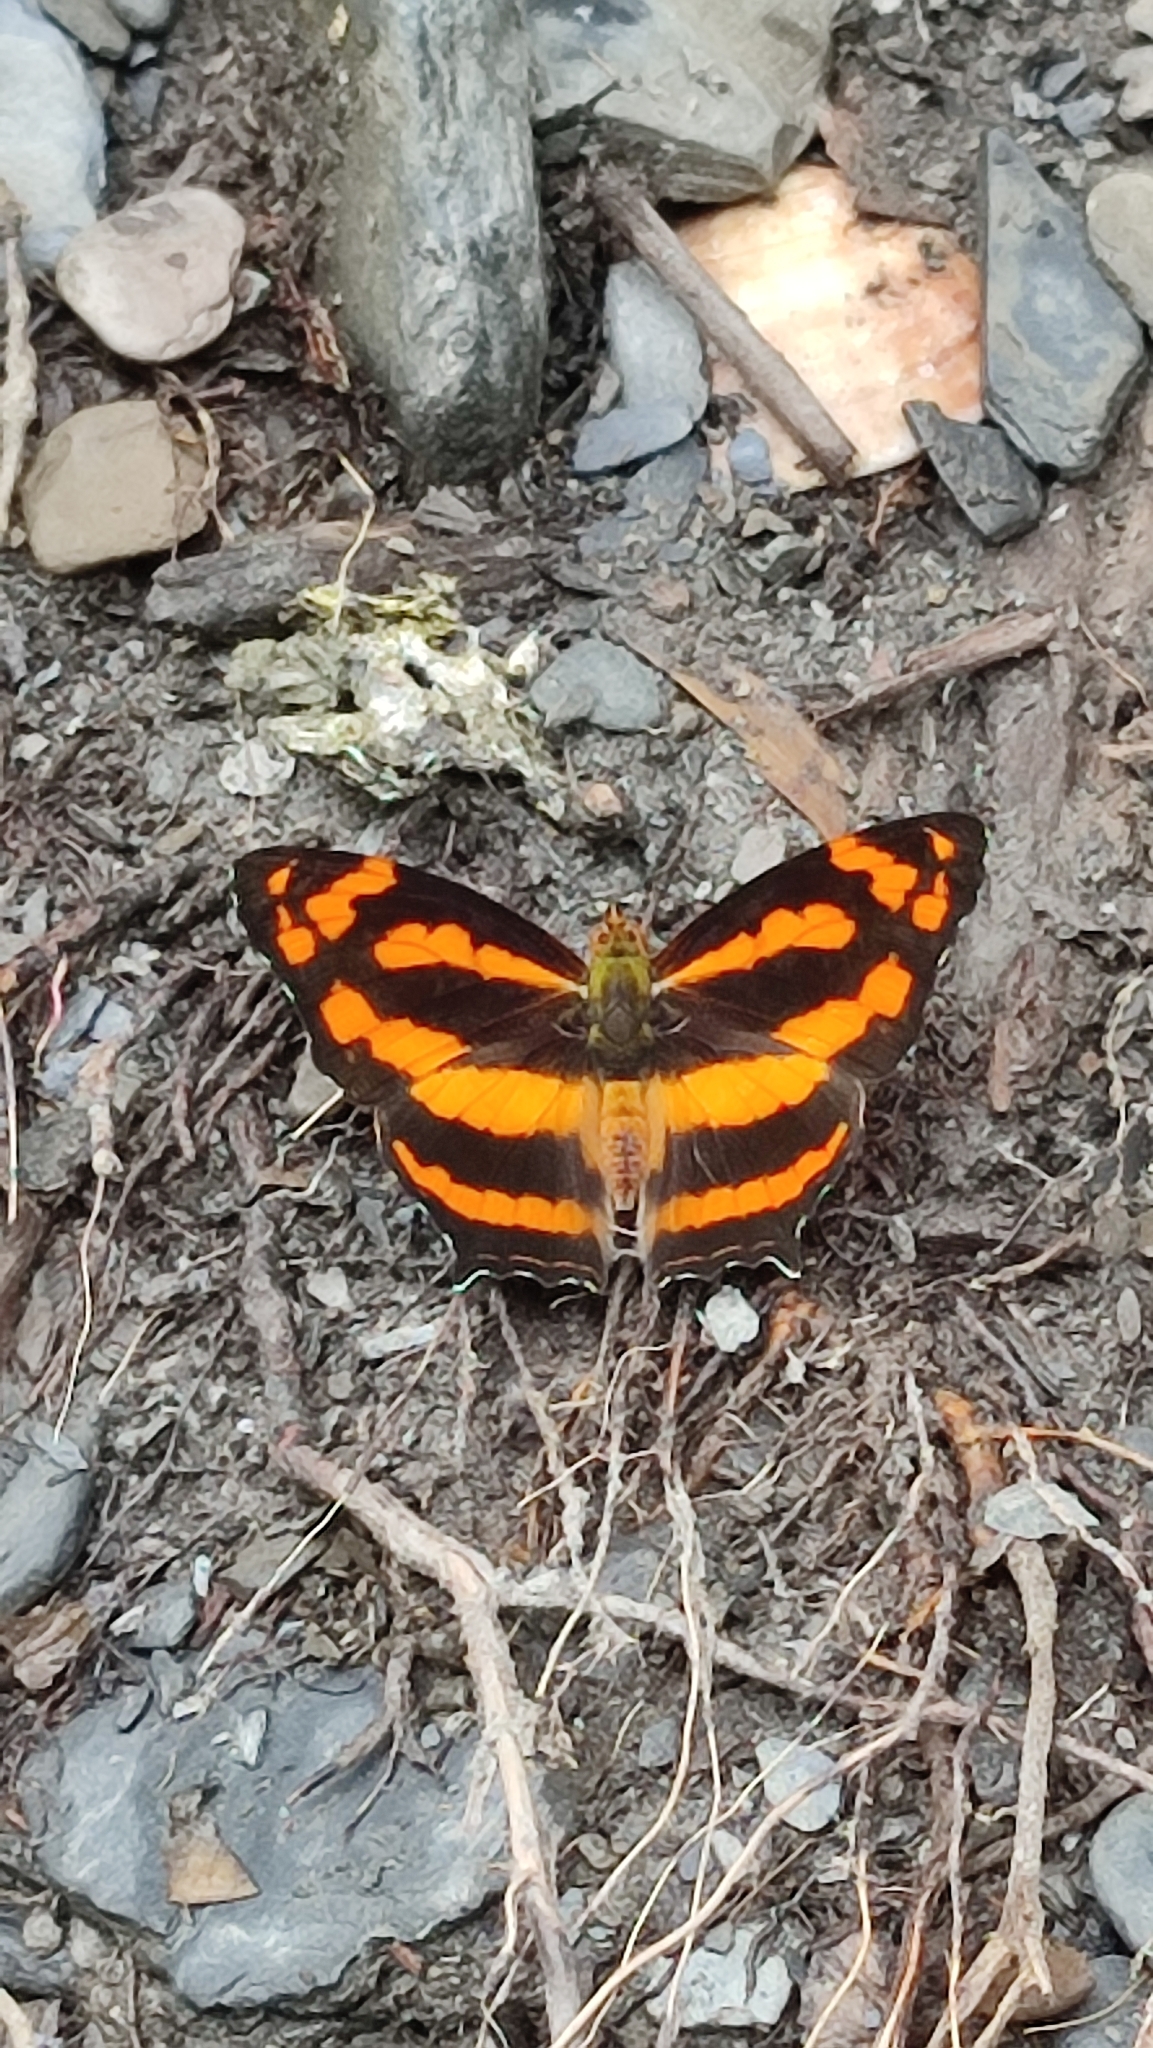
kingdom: Animalia
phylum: Arthropoda
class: Insecta
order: Lepidoptera
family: Nymphalidae
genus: Symbrenthia
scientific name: Symbrenthia hypselis
